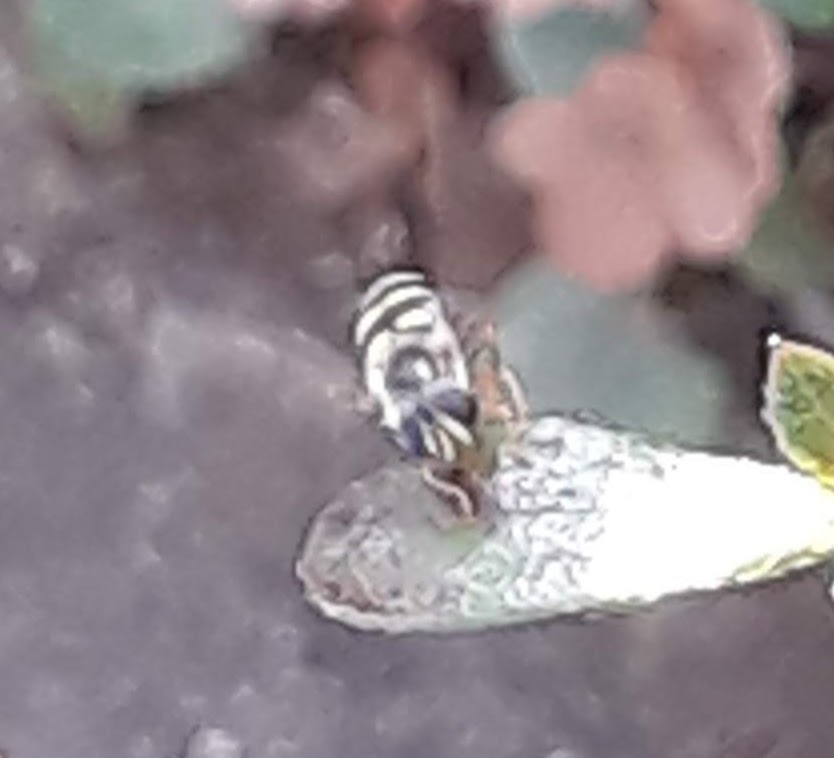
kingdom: Animalia
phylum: Arthropoda
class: Insecta
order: Diptera
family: Syrphidae
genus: Eupeodes
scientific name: Eupeodes
